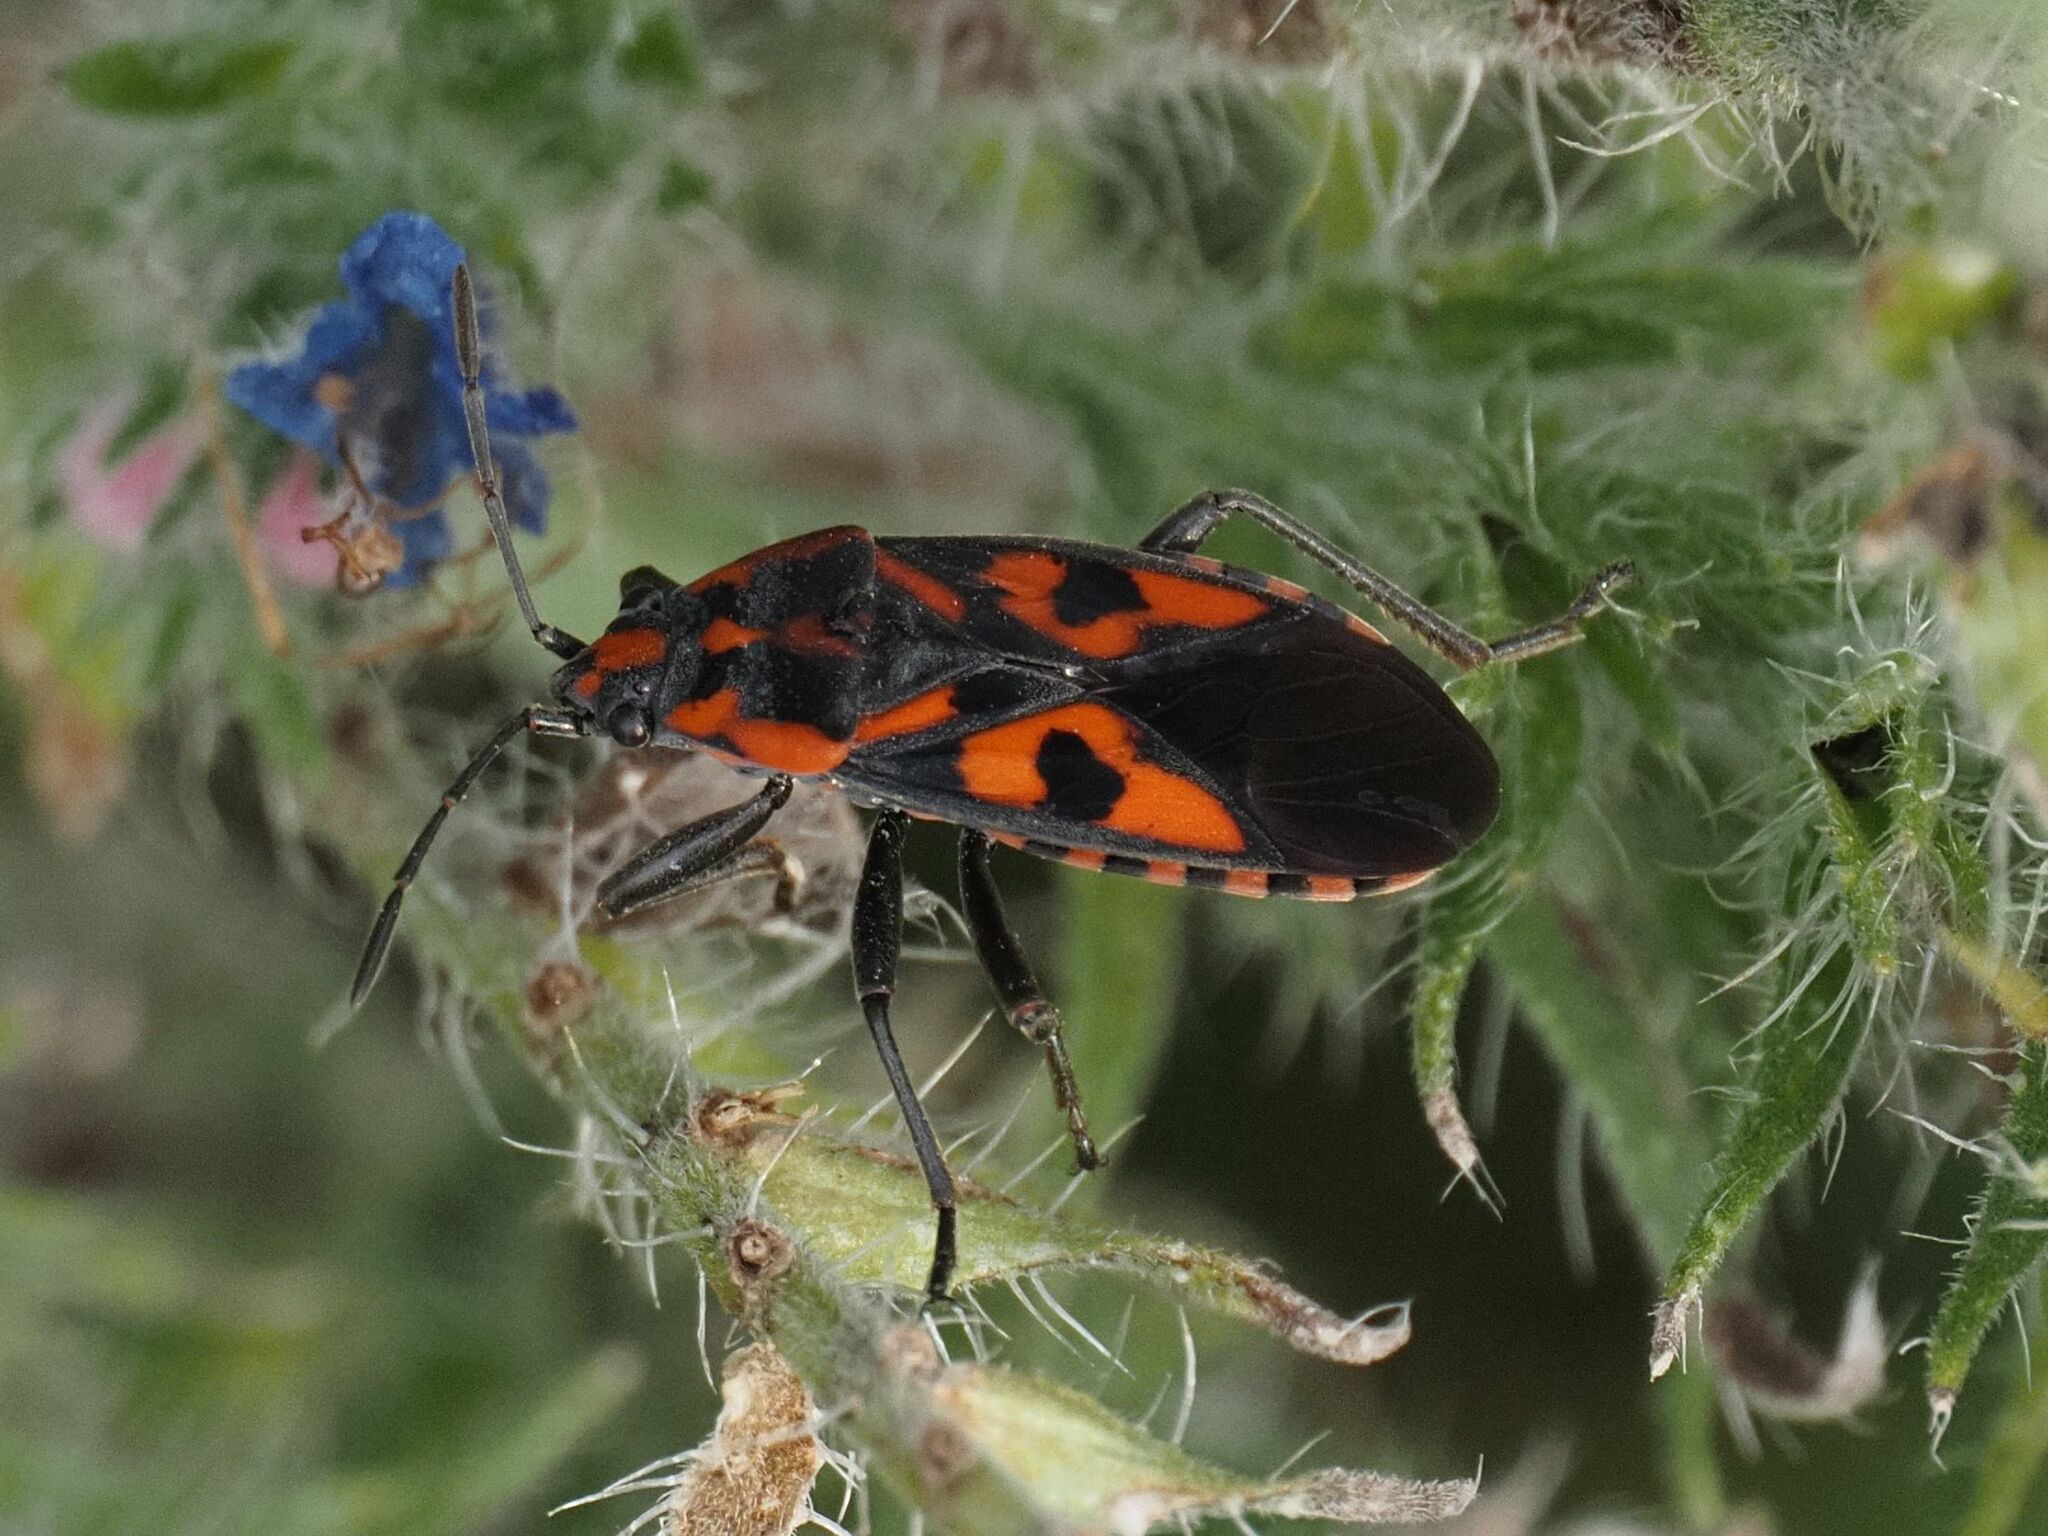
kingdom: Animalia
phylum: Arthropoda
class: Insecta
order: Hemiptera
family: Lygaeidae
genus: Spilostethus
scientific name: Spilostethus saxatilis
